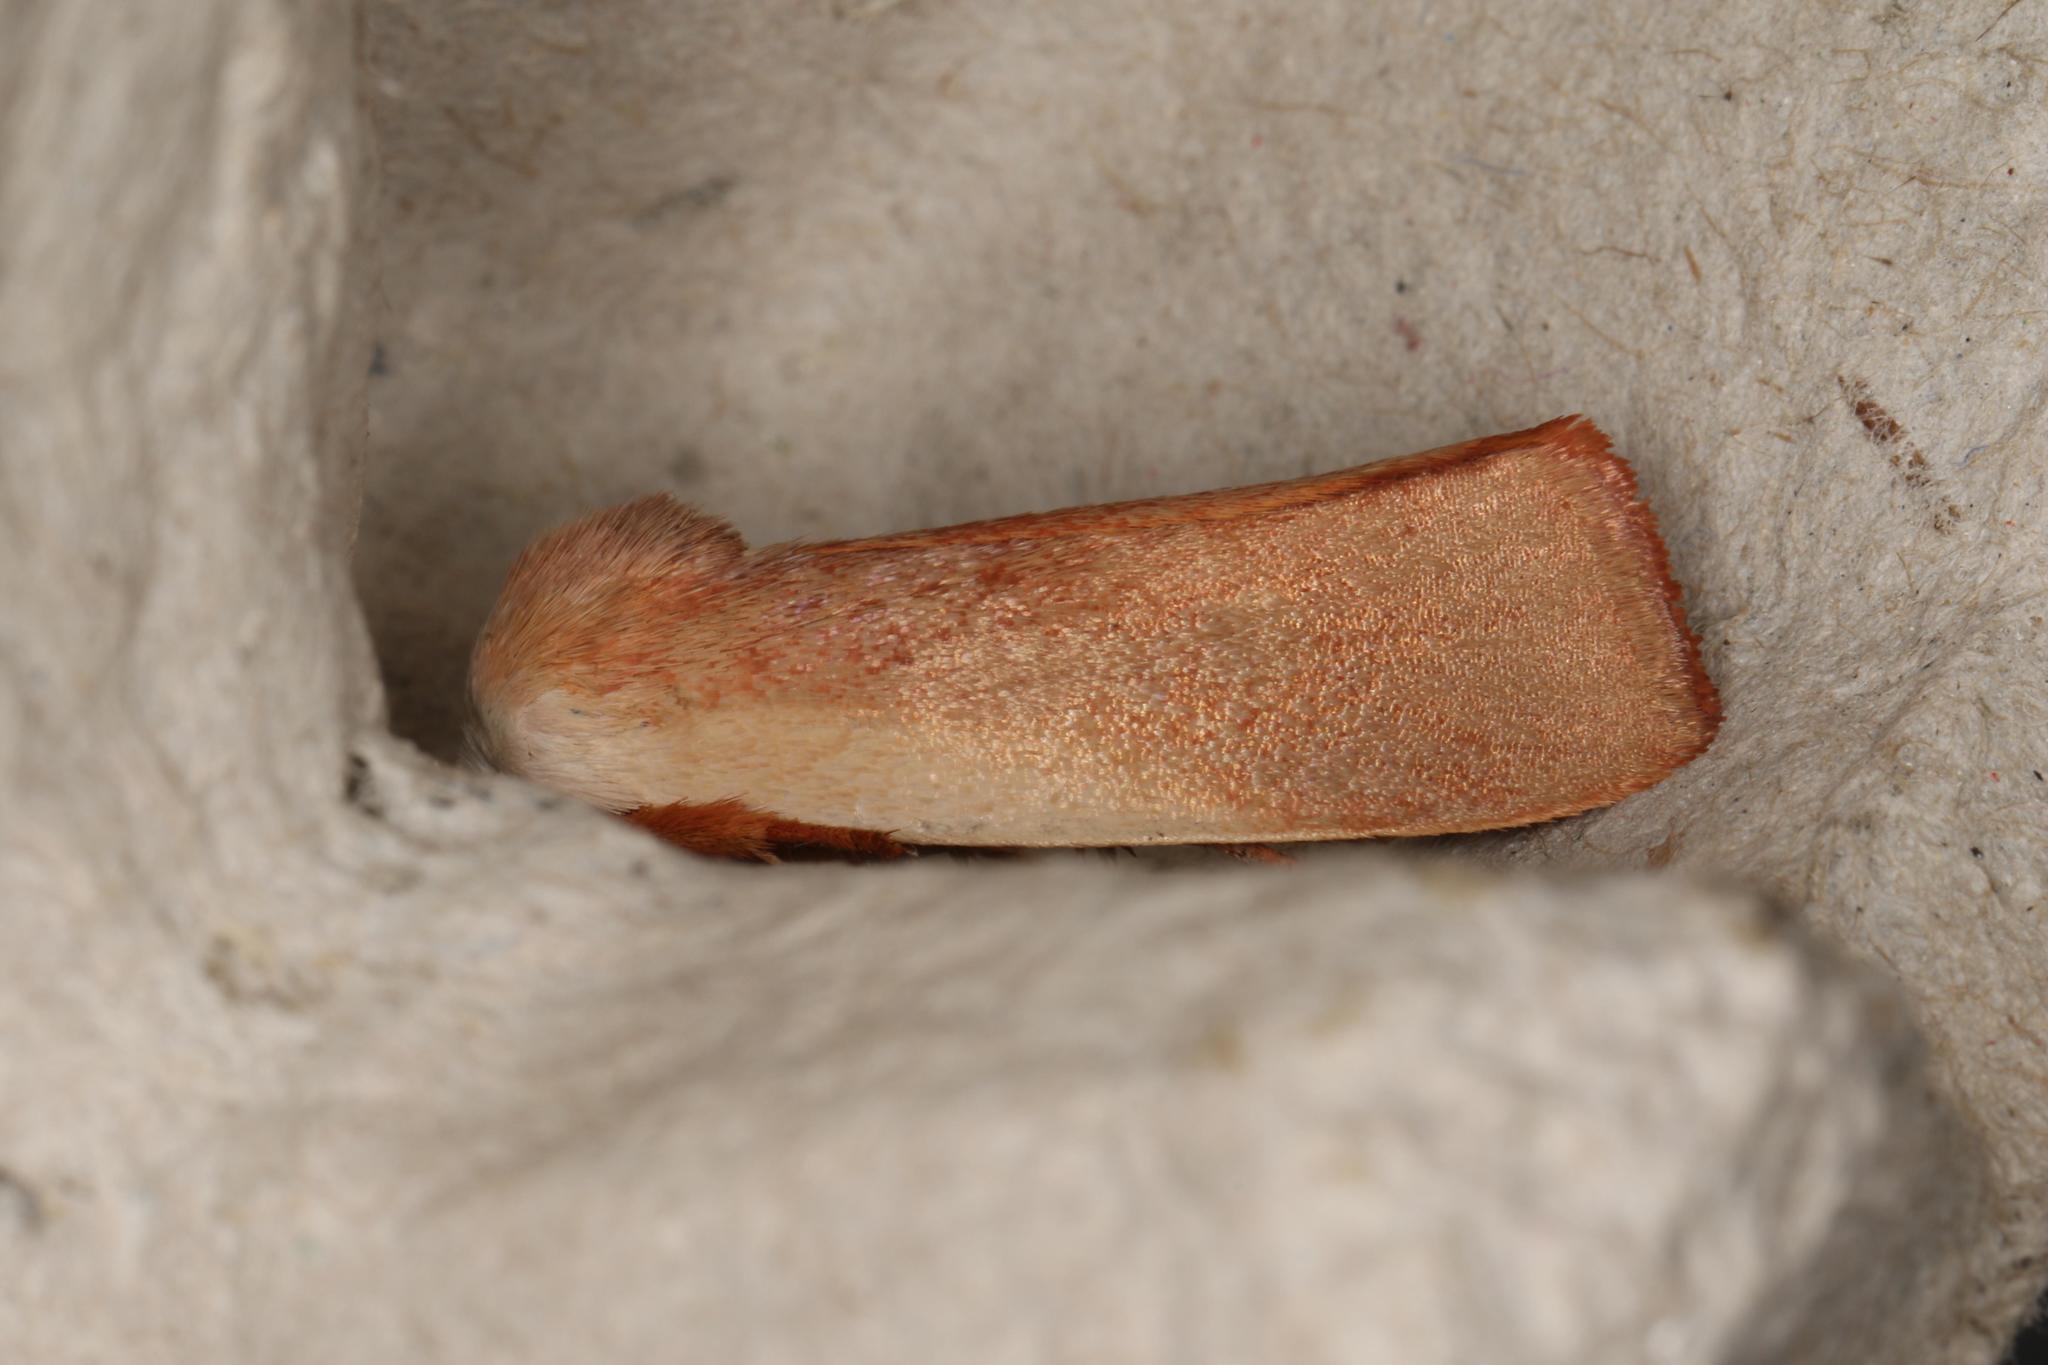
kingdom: Animalia
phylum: Arthropoda
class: Insecta
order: Lepidoptera
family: Xyloryctidae
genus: Cryptophasa
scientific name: Cryptophasa rubescens
